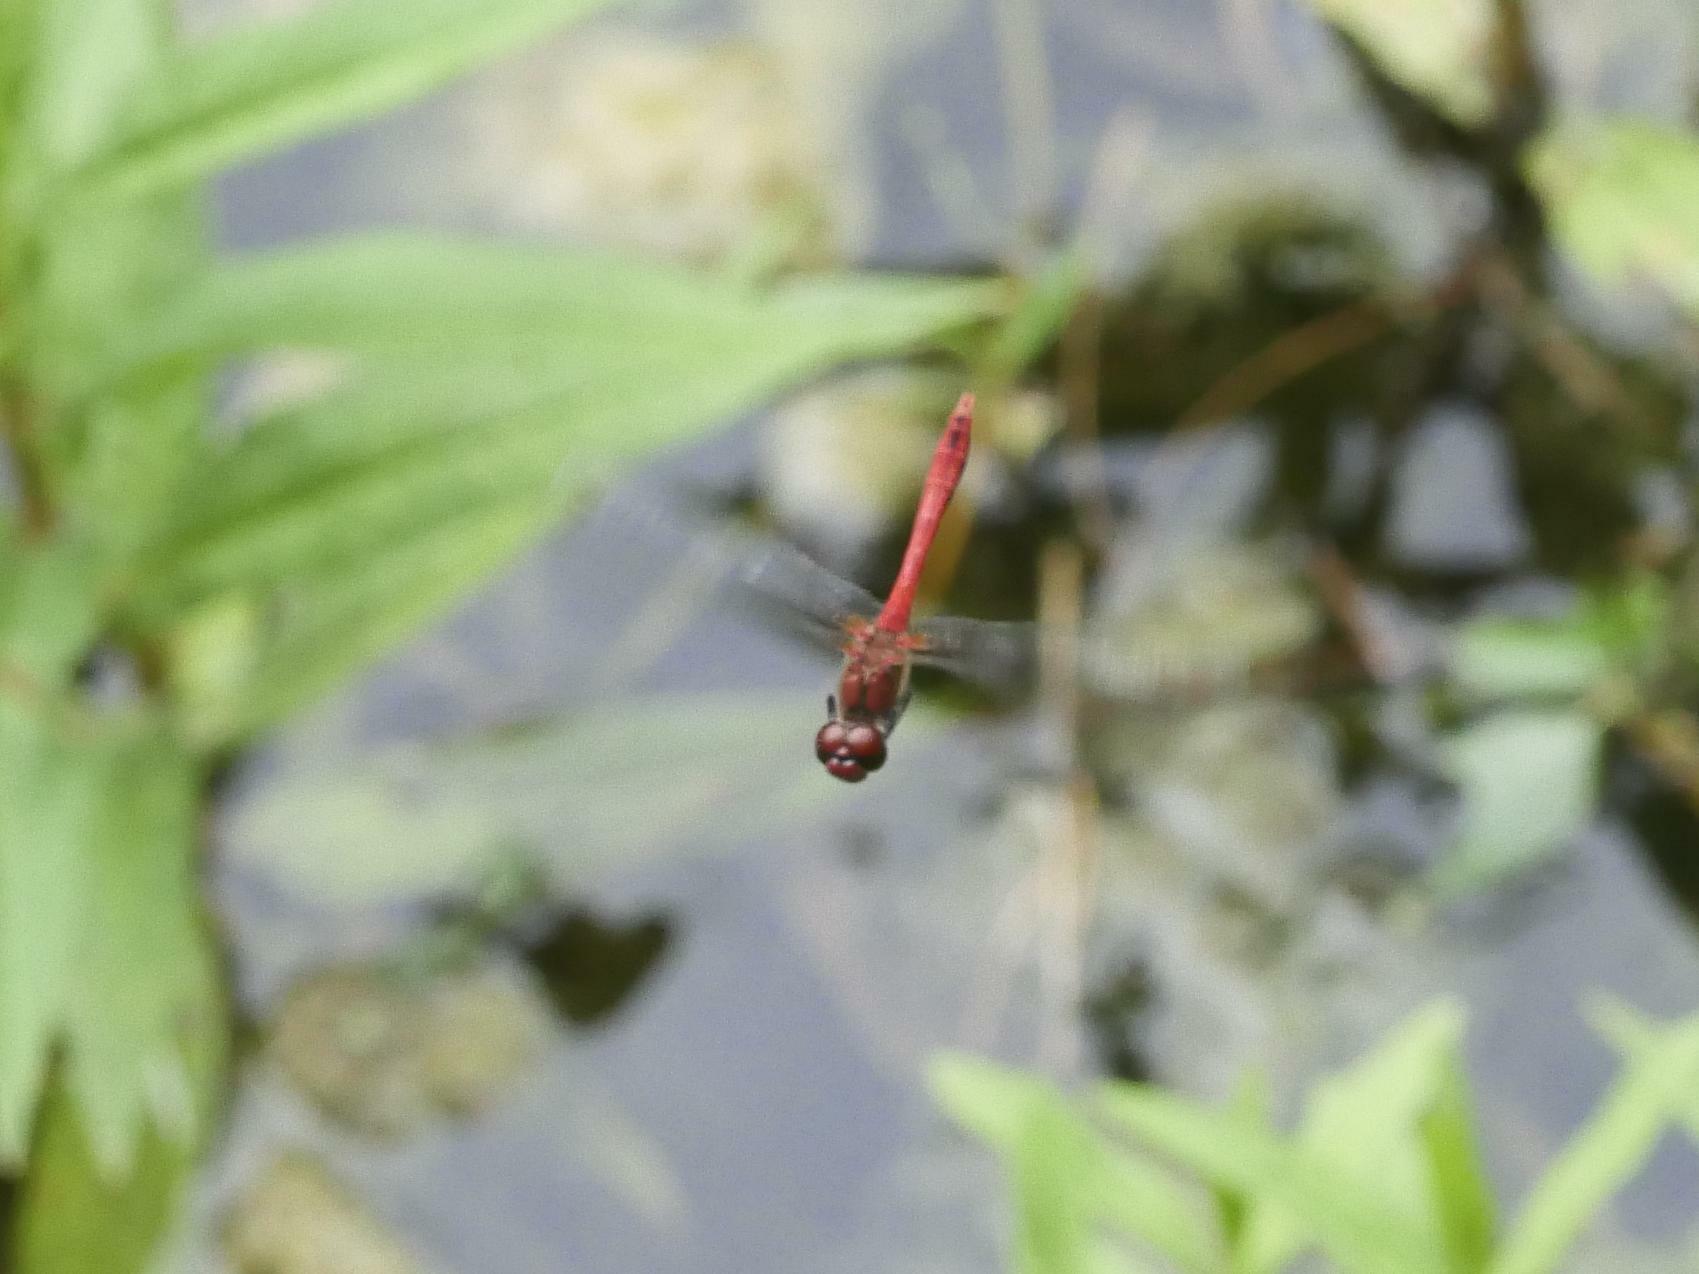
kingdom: Animalia
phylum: Arthropoda
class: Insecta
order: Odonata
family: Libellulidae
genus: Sympetrum
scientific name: Sympetrum sanguineum
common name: Ruddy darter
